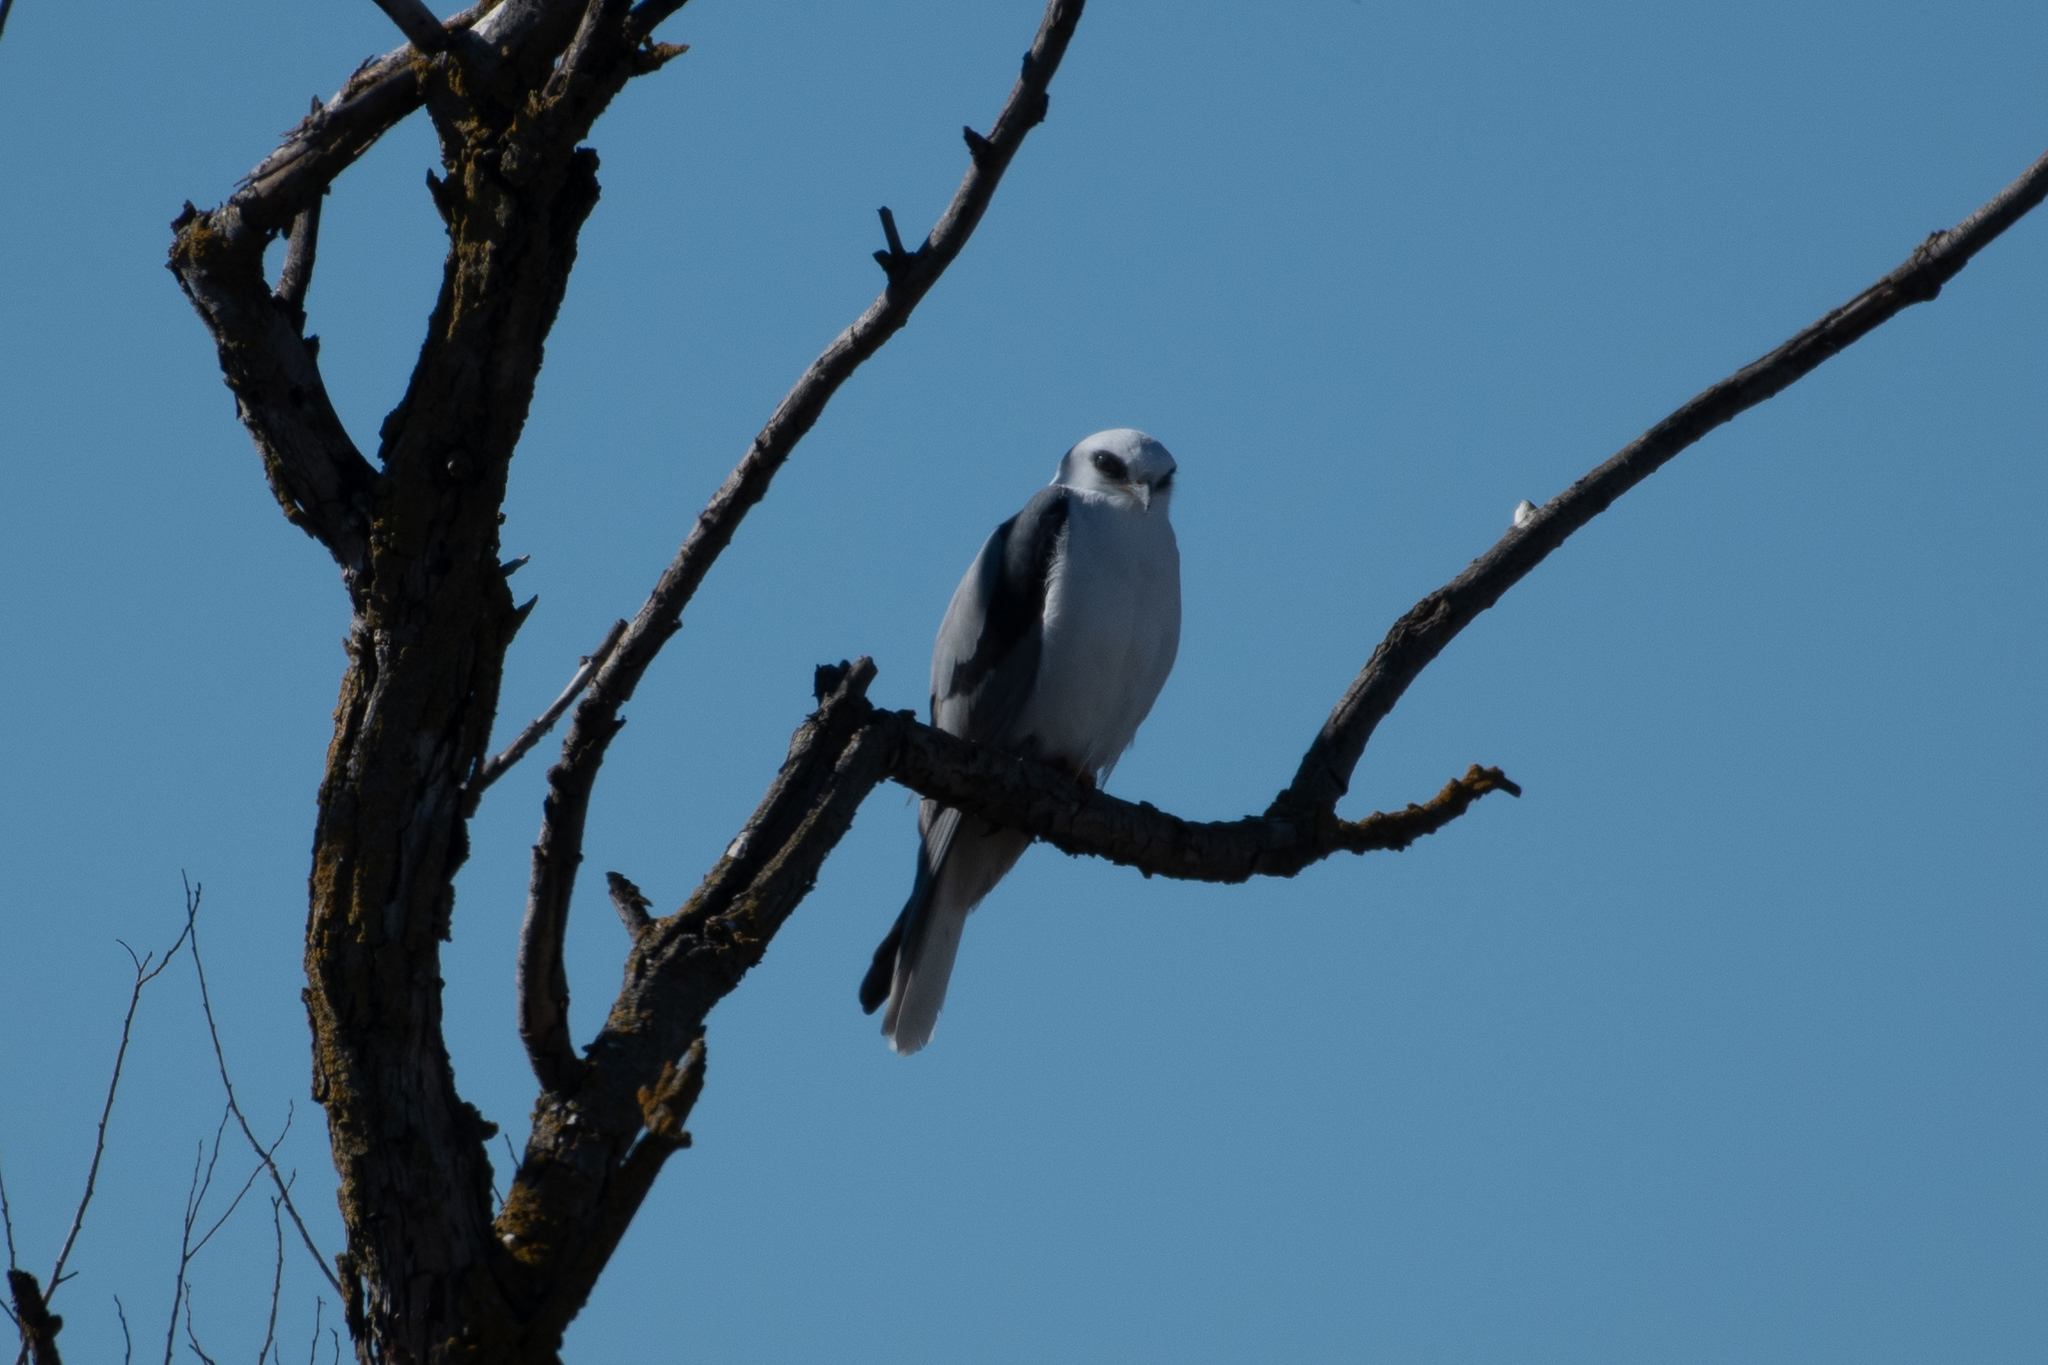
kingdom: Animalia
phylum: Chordata
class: Aves
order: Accipitriformes
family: Accipitridae
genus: Elanus
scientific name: Elanus leucurus
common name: White-tailed kite
